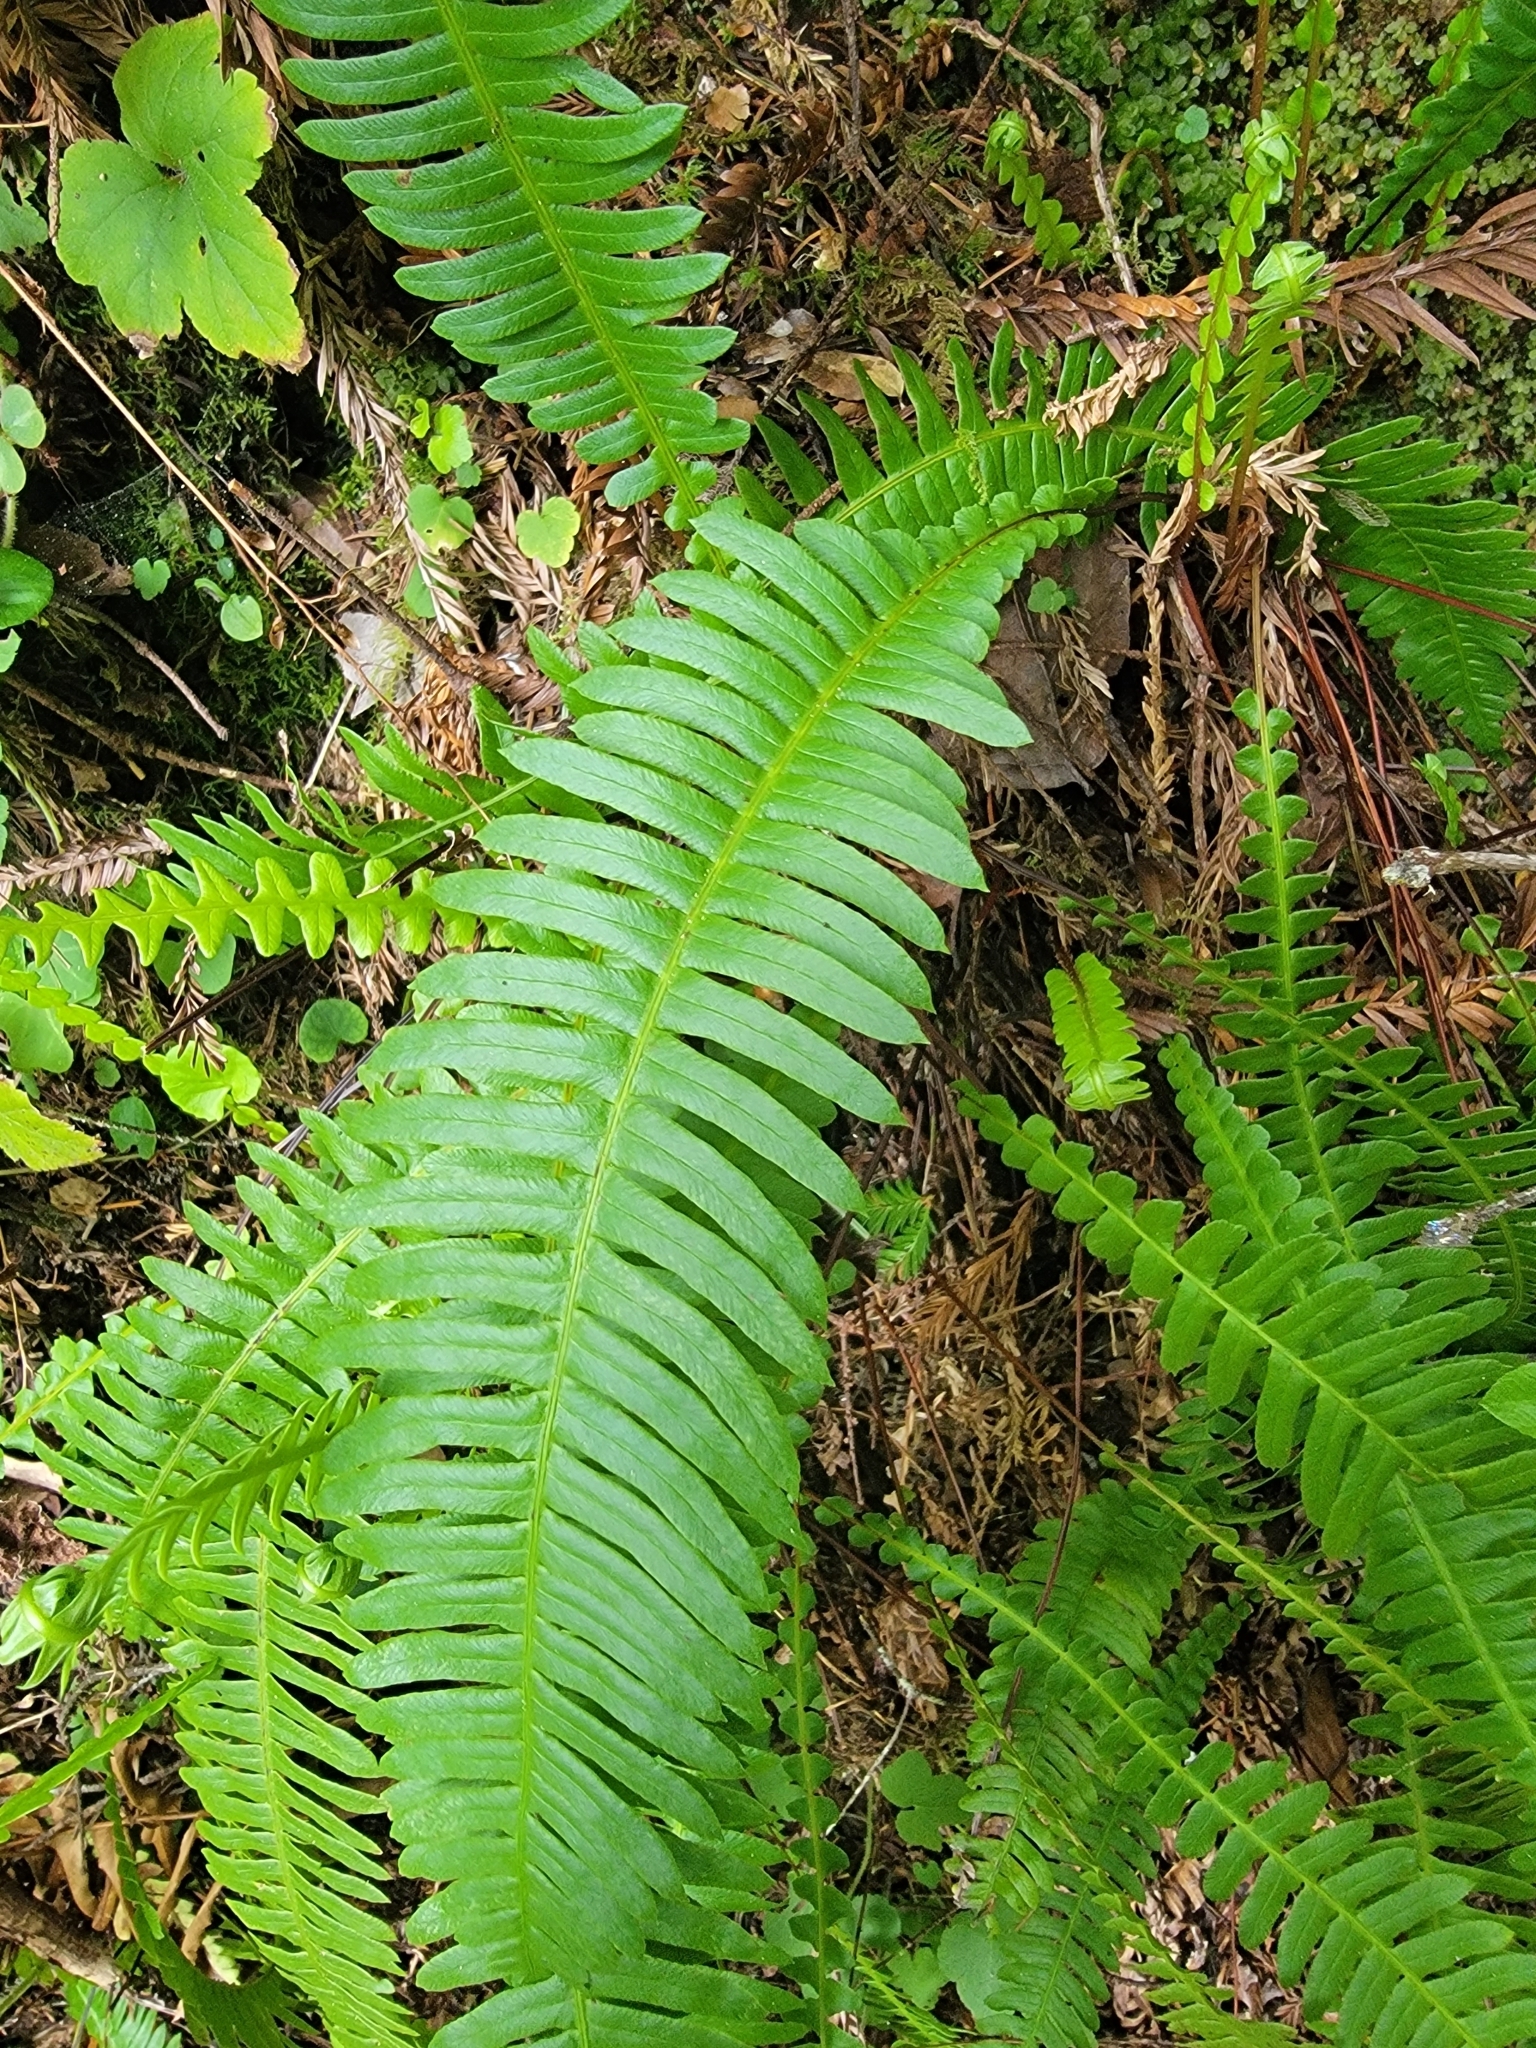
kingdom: Plantae
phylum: Tracheophyta
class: Polypodiopsida
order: Polypodiales
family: Blechnaceae
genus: Struthiopteris
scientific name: Struthiopteris spicant
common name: Deer fern
